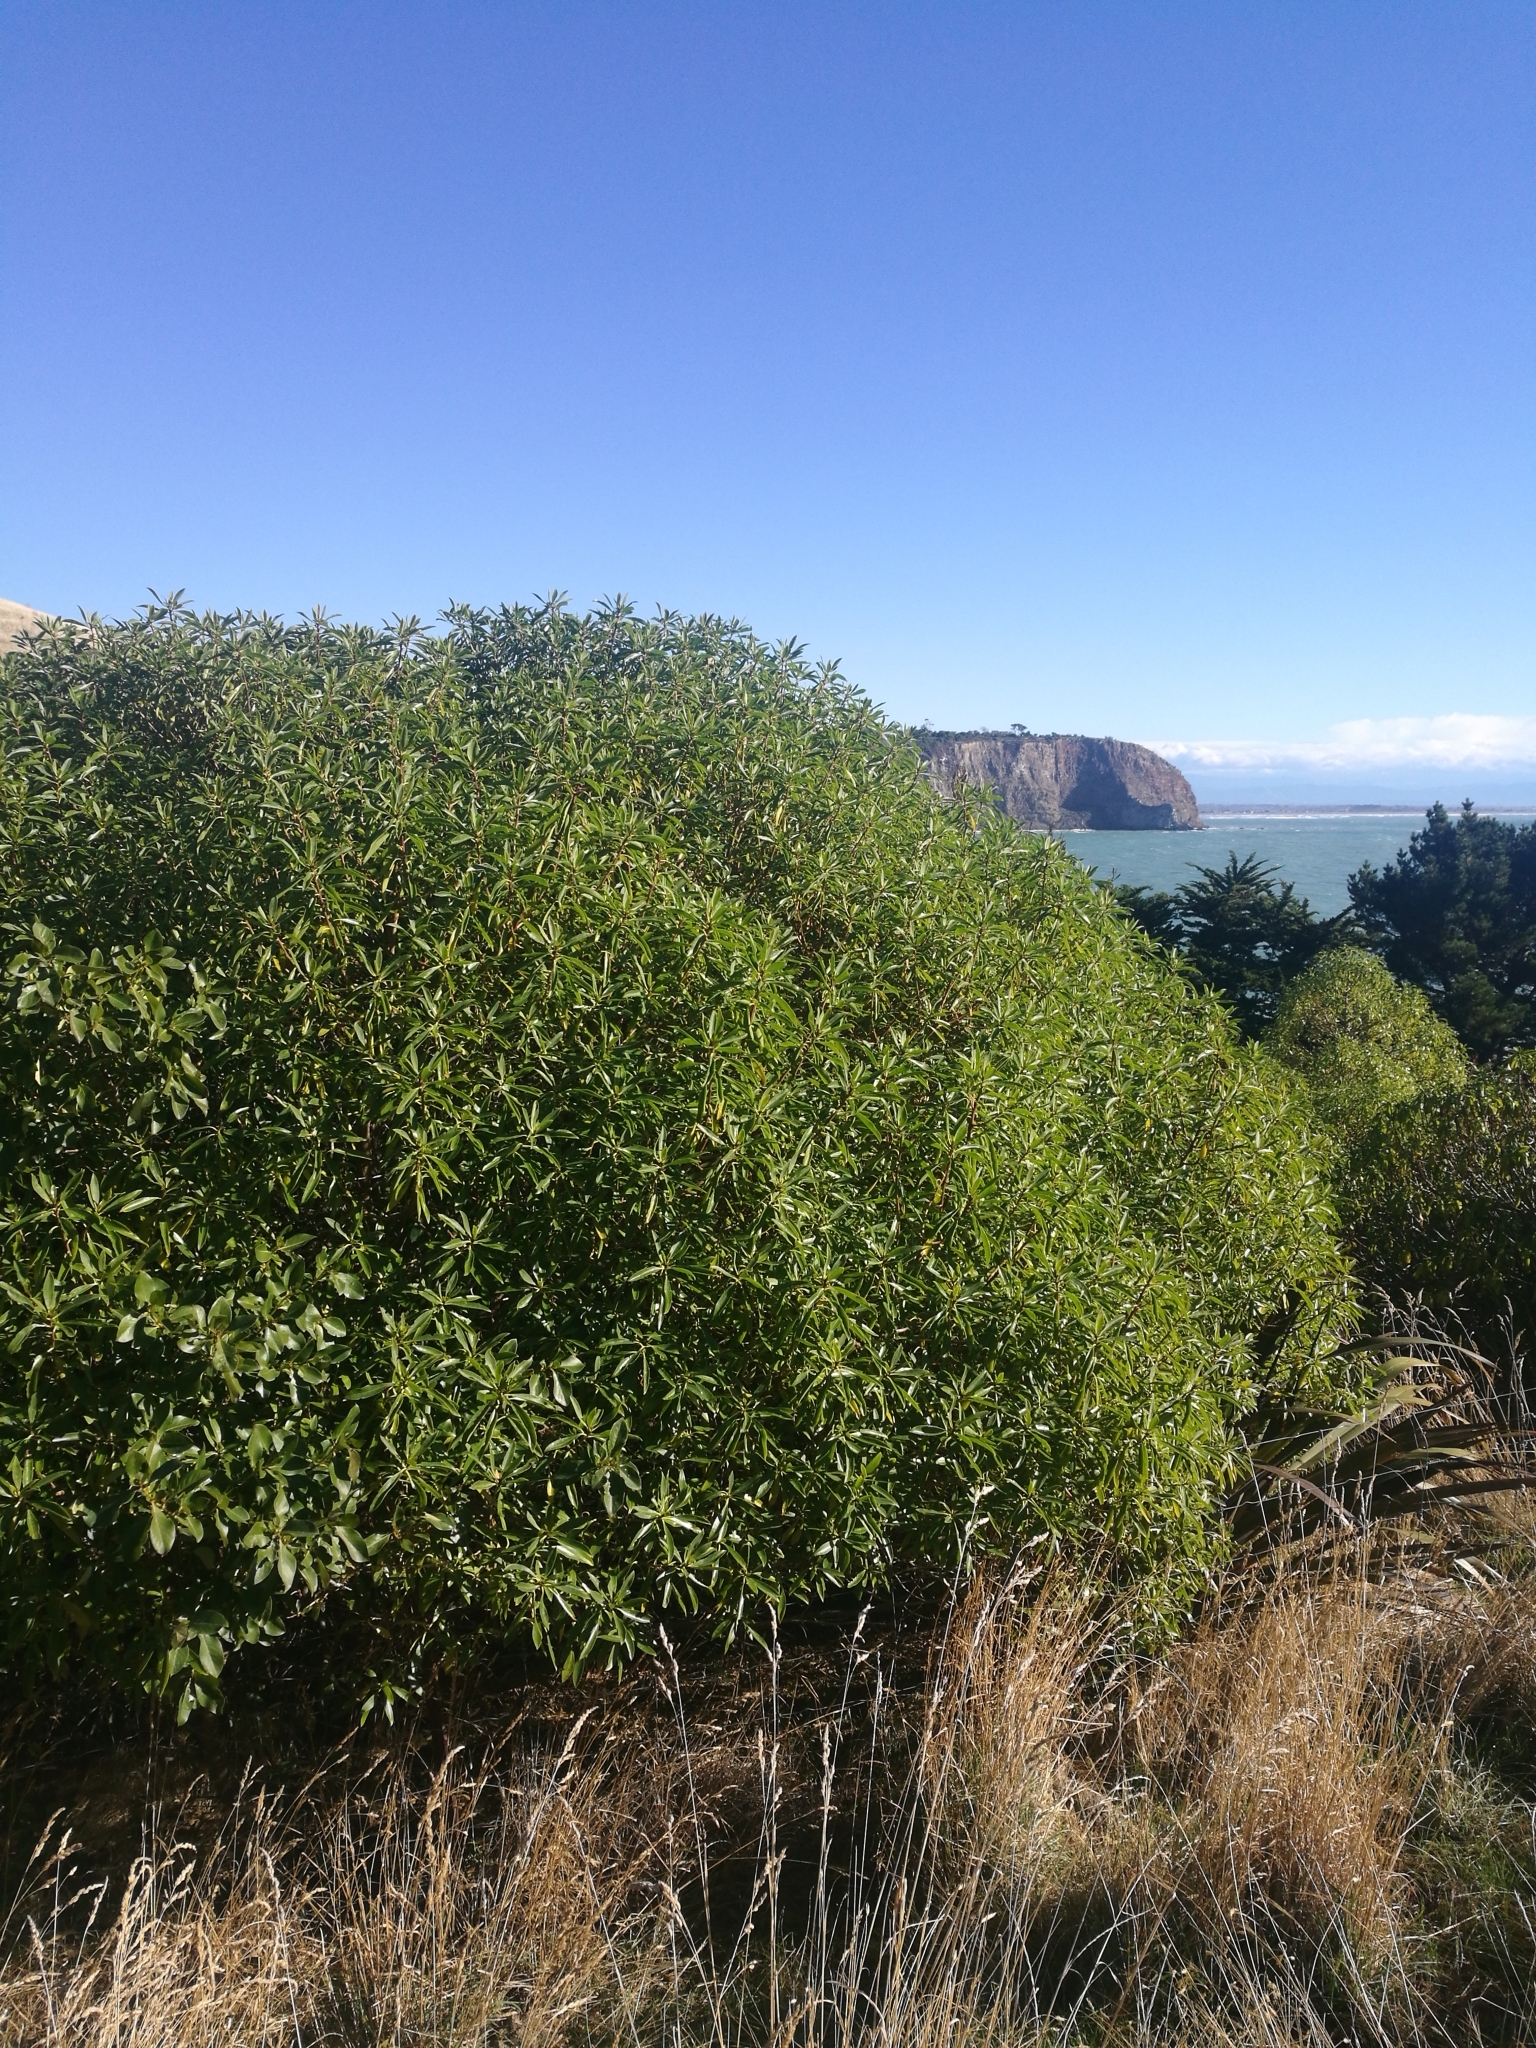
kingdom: Plantae
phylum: Tracheophyta
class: Magnoliopsida
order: Lamiales
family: Scrophulariaceae
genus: Myoporum
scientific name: Myoporum laetum
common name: Ngaio tree
